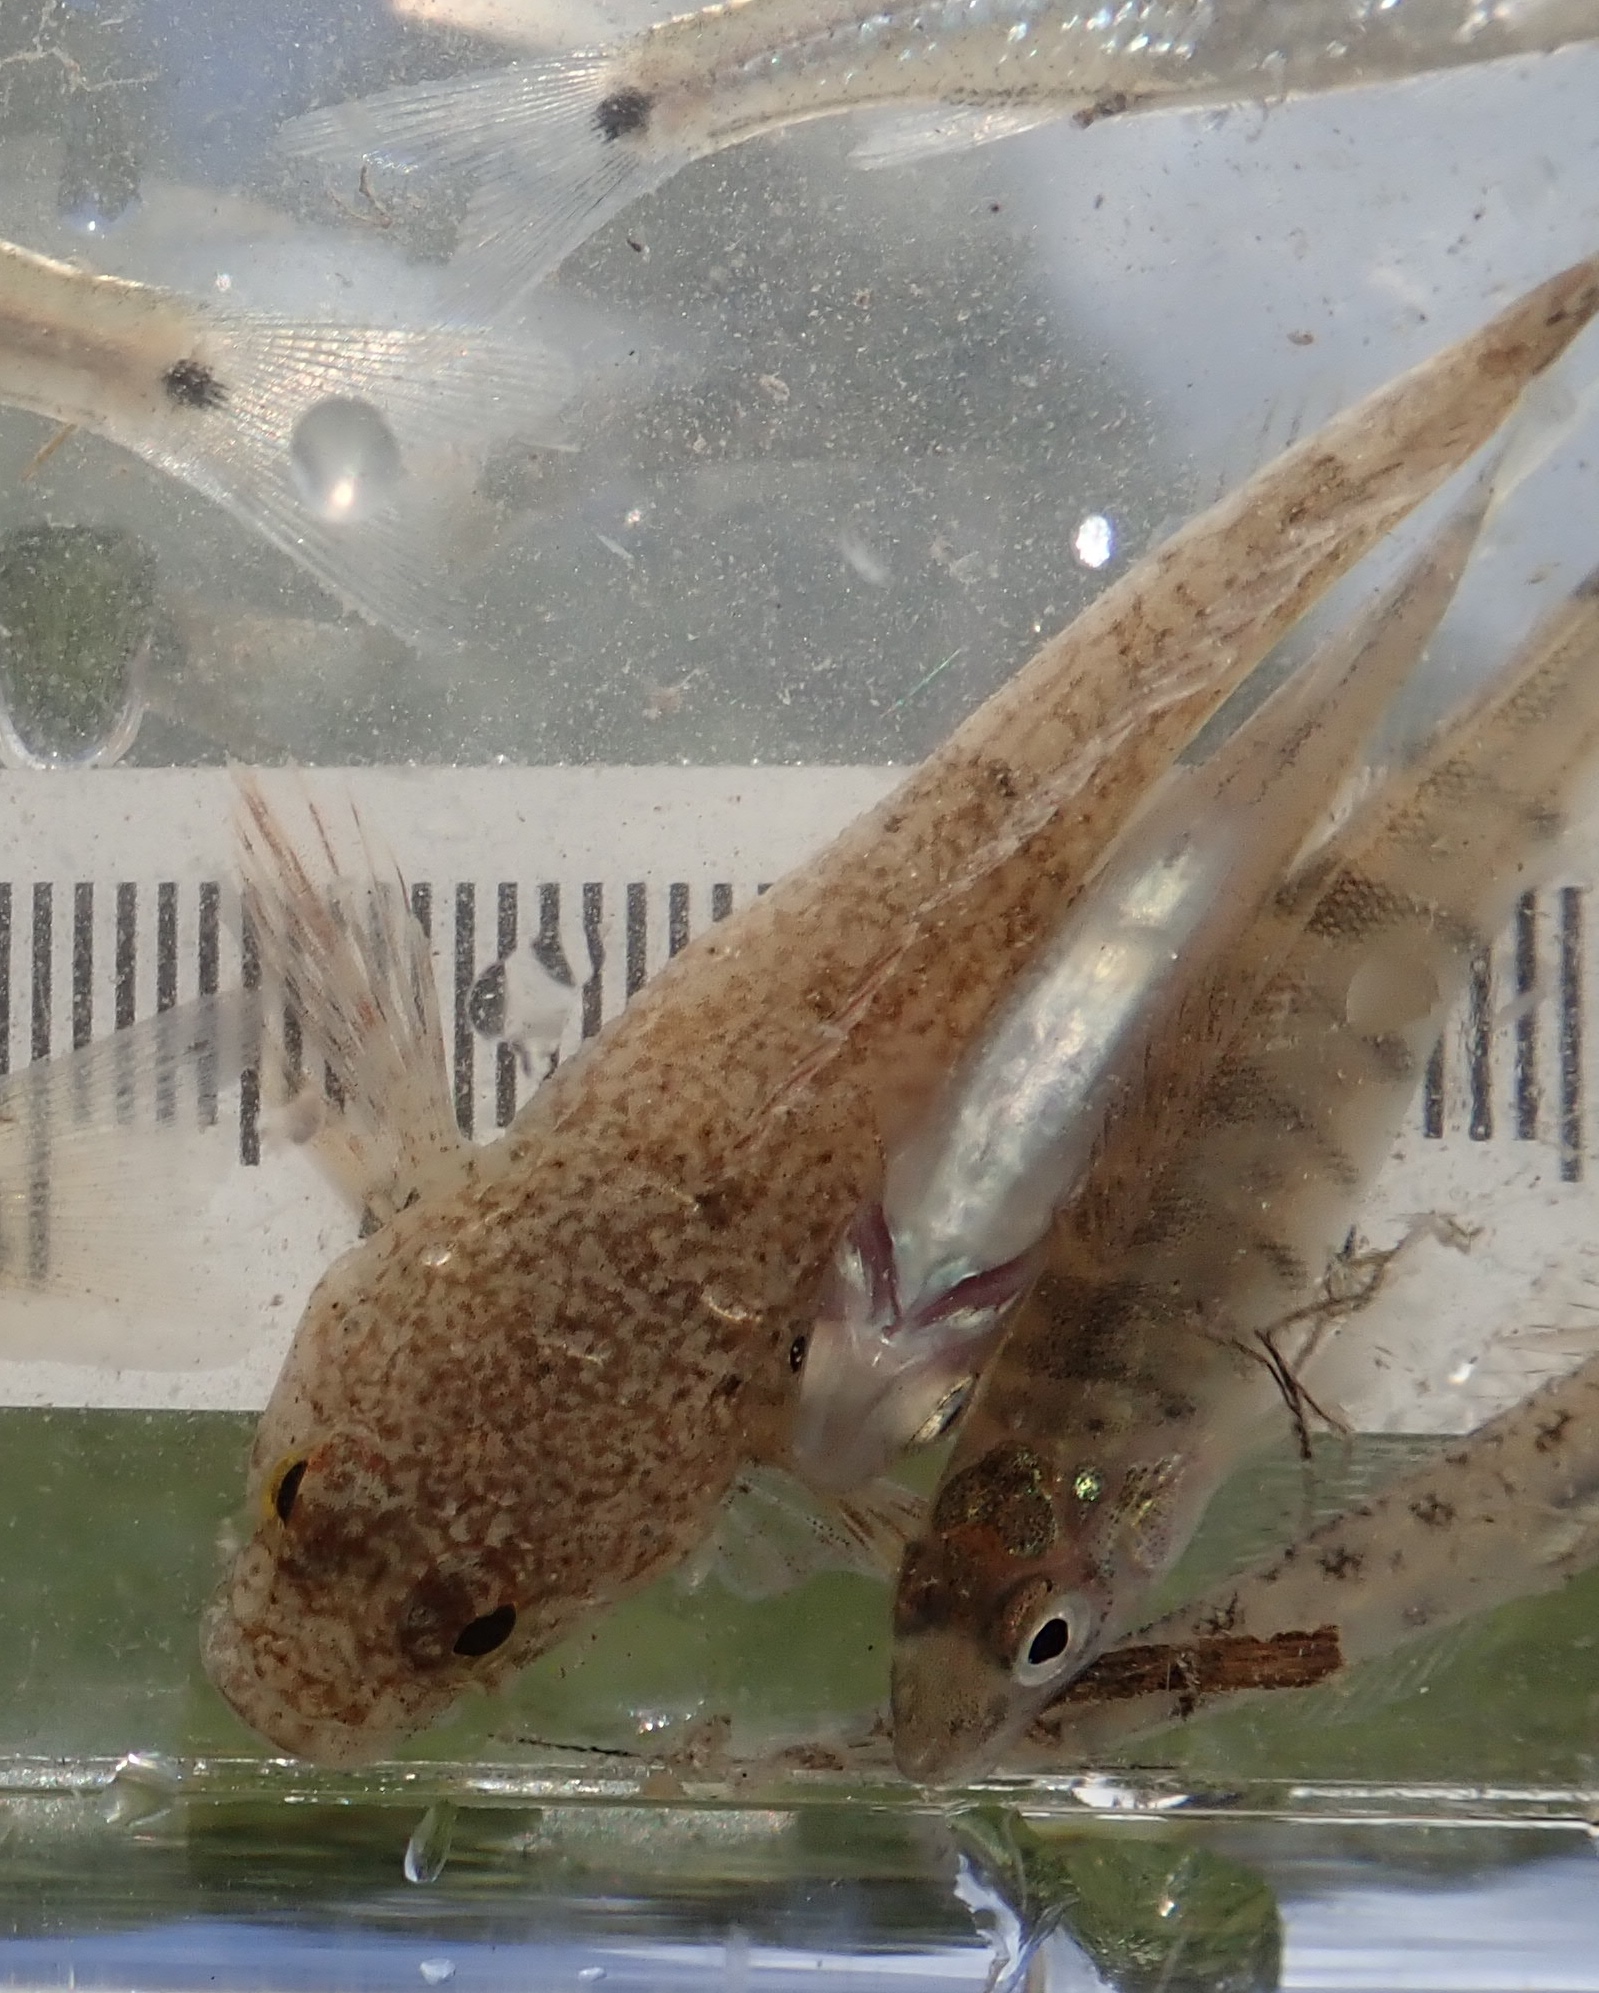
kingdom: Animalia
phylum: Chordata
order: Perciformes
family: Percidae
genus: Percina
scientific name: Percina caprodes
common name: Logperch
